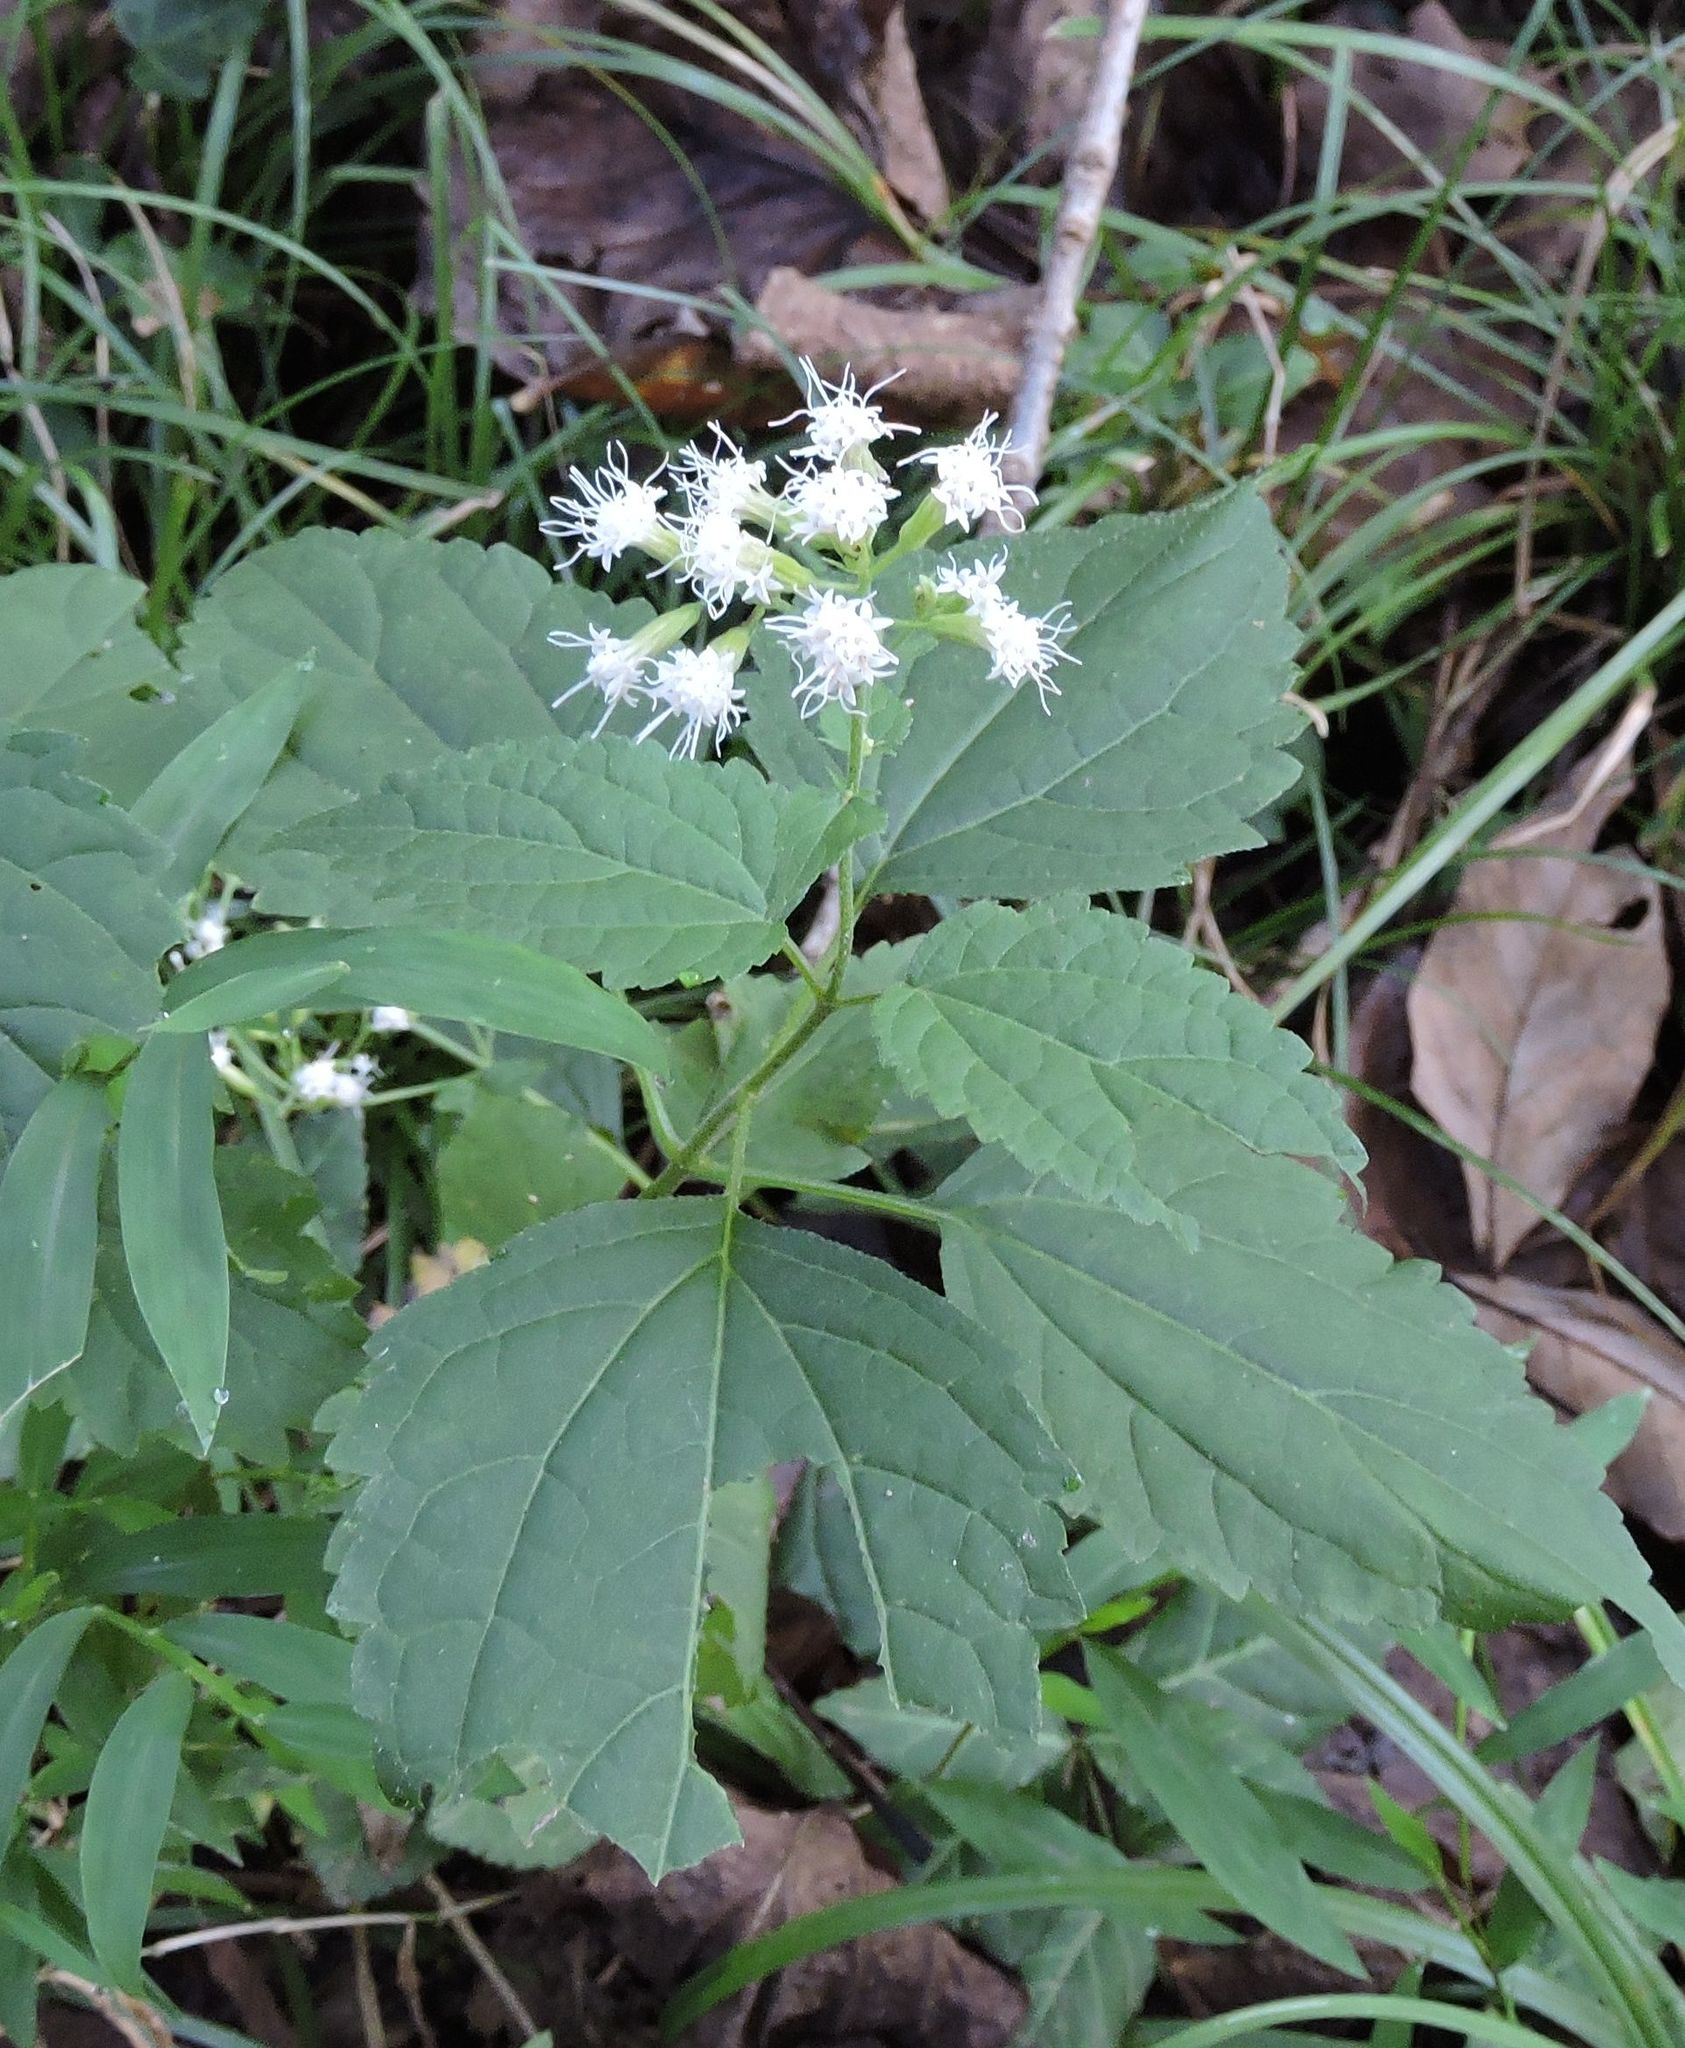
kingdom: Plantae
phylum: Tracheophyta
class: Magnoliopsida
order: Asterales
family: Asteraceae
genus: Ageratina
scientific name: Ageratina altissima
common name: White snakeroot
